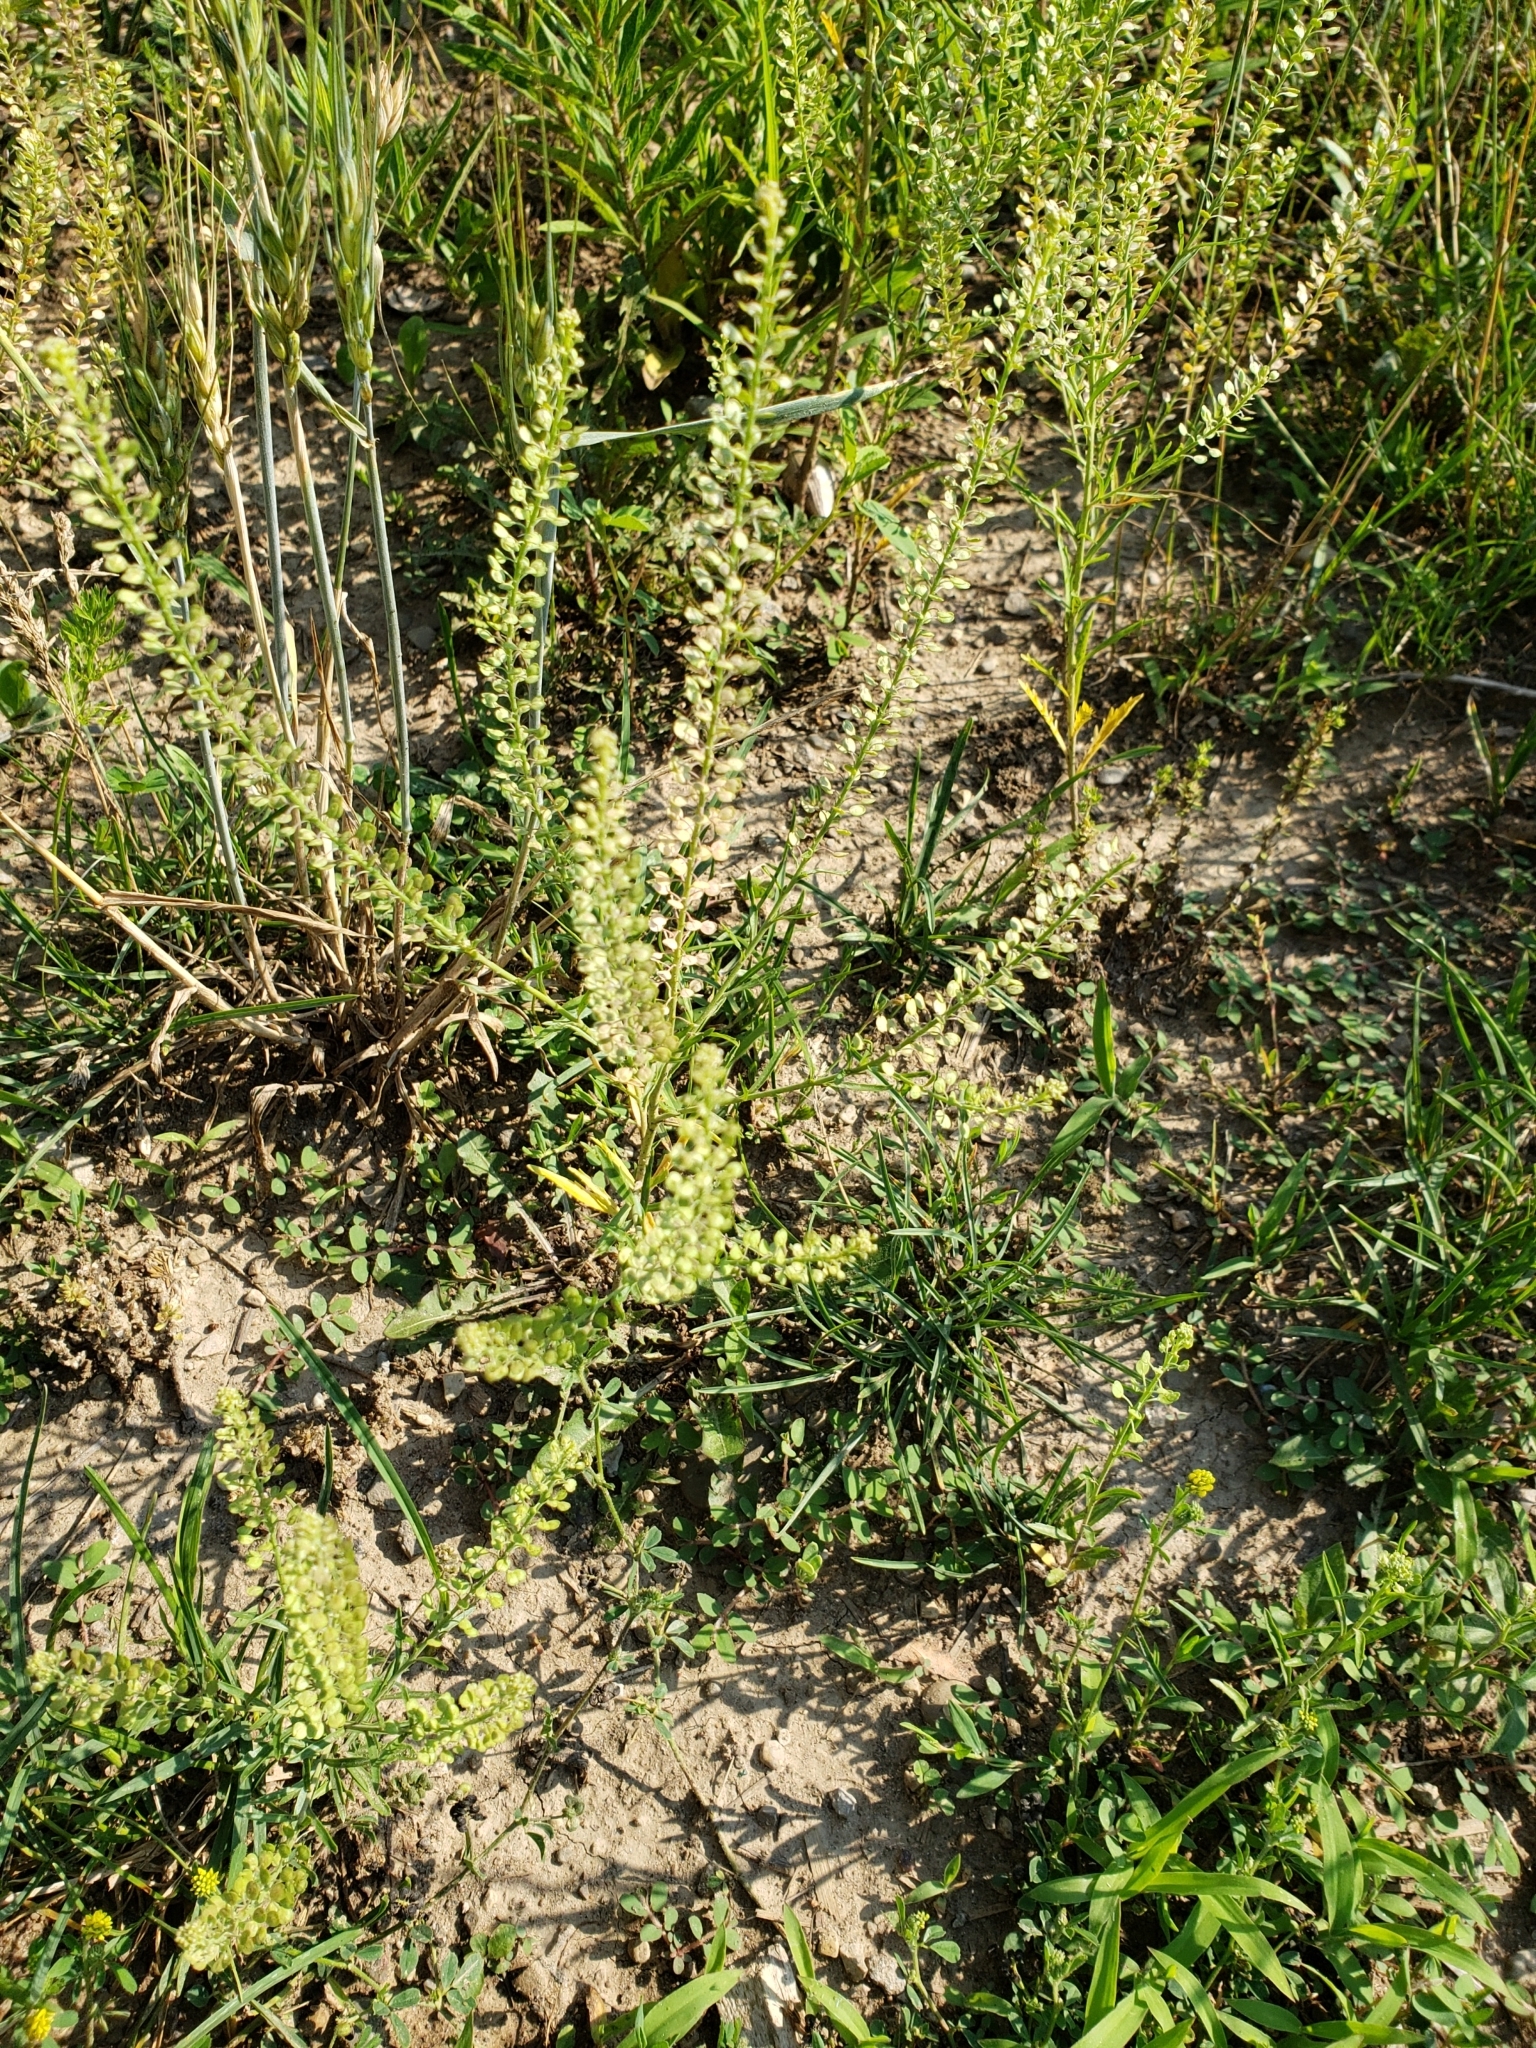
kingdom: Plantae
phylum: Tracheophyta
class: Magnoliopsida
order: Brassicales
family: Brassicaceae
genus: Lepidium
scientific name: Lepidium densiflorum
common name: Miner's pepperwort
